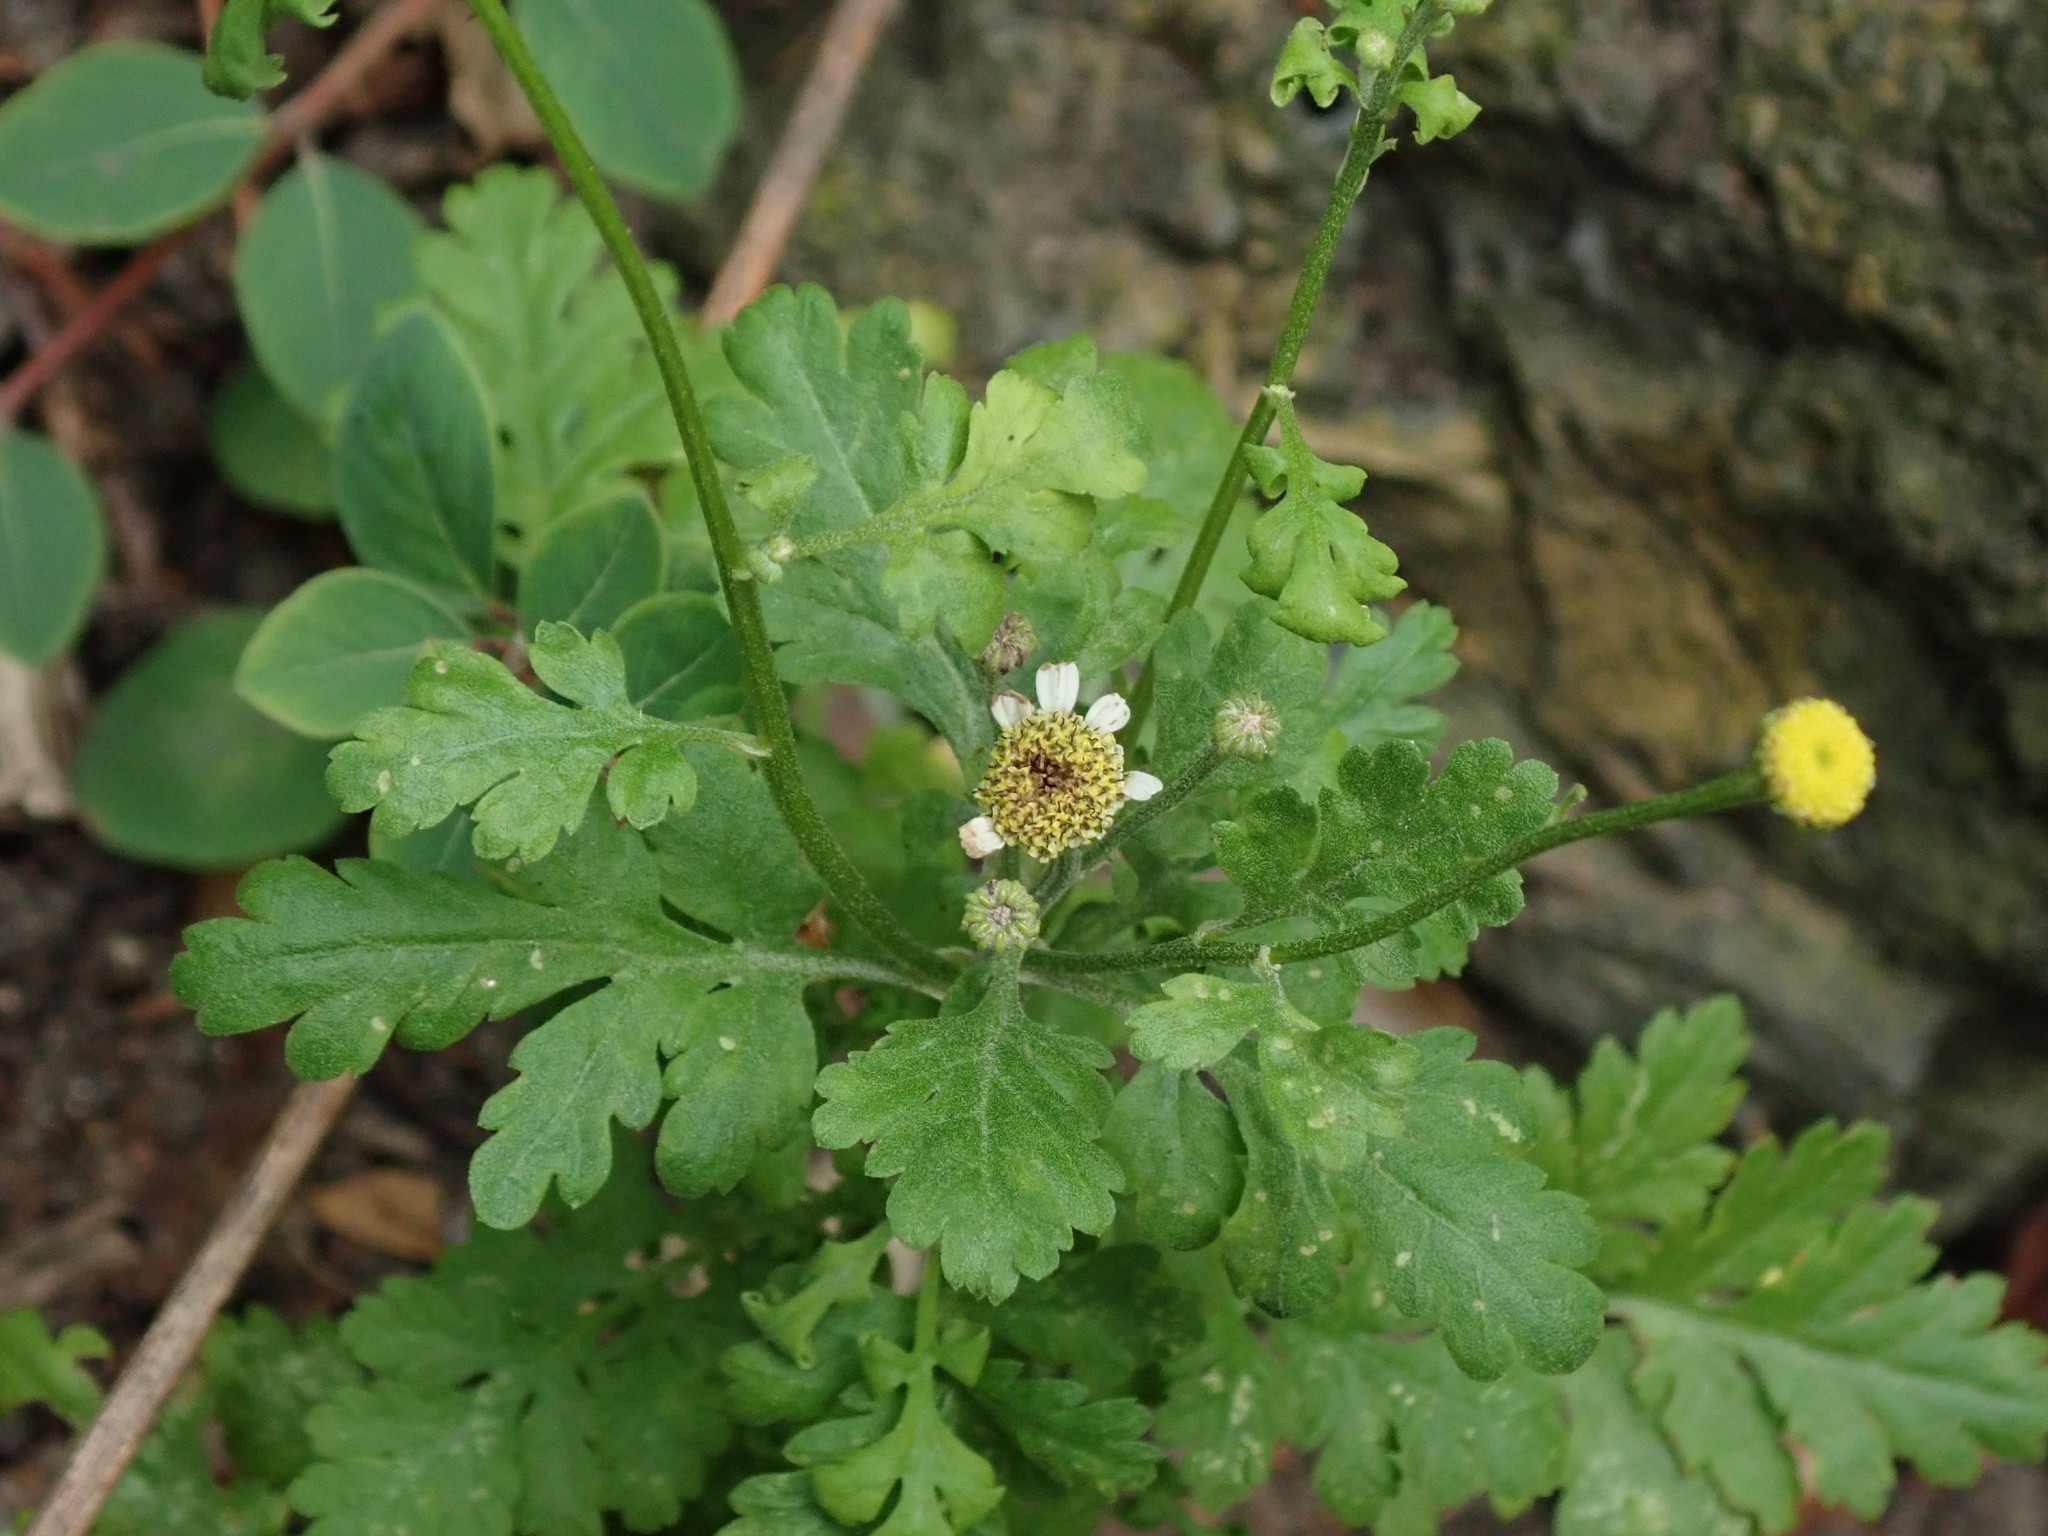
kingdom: Plantae
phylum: Tracheophyta
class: Magnoliopsida
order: Asterales
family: Asteraceae
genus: Tanacetum
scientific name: Tanacetum parthenium
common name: Feverfew
